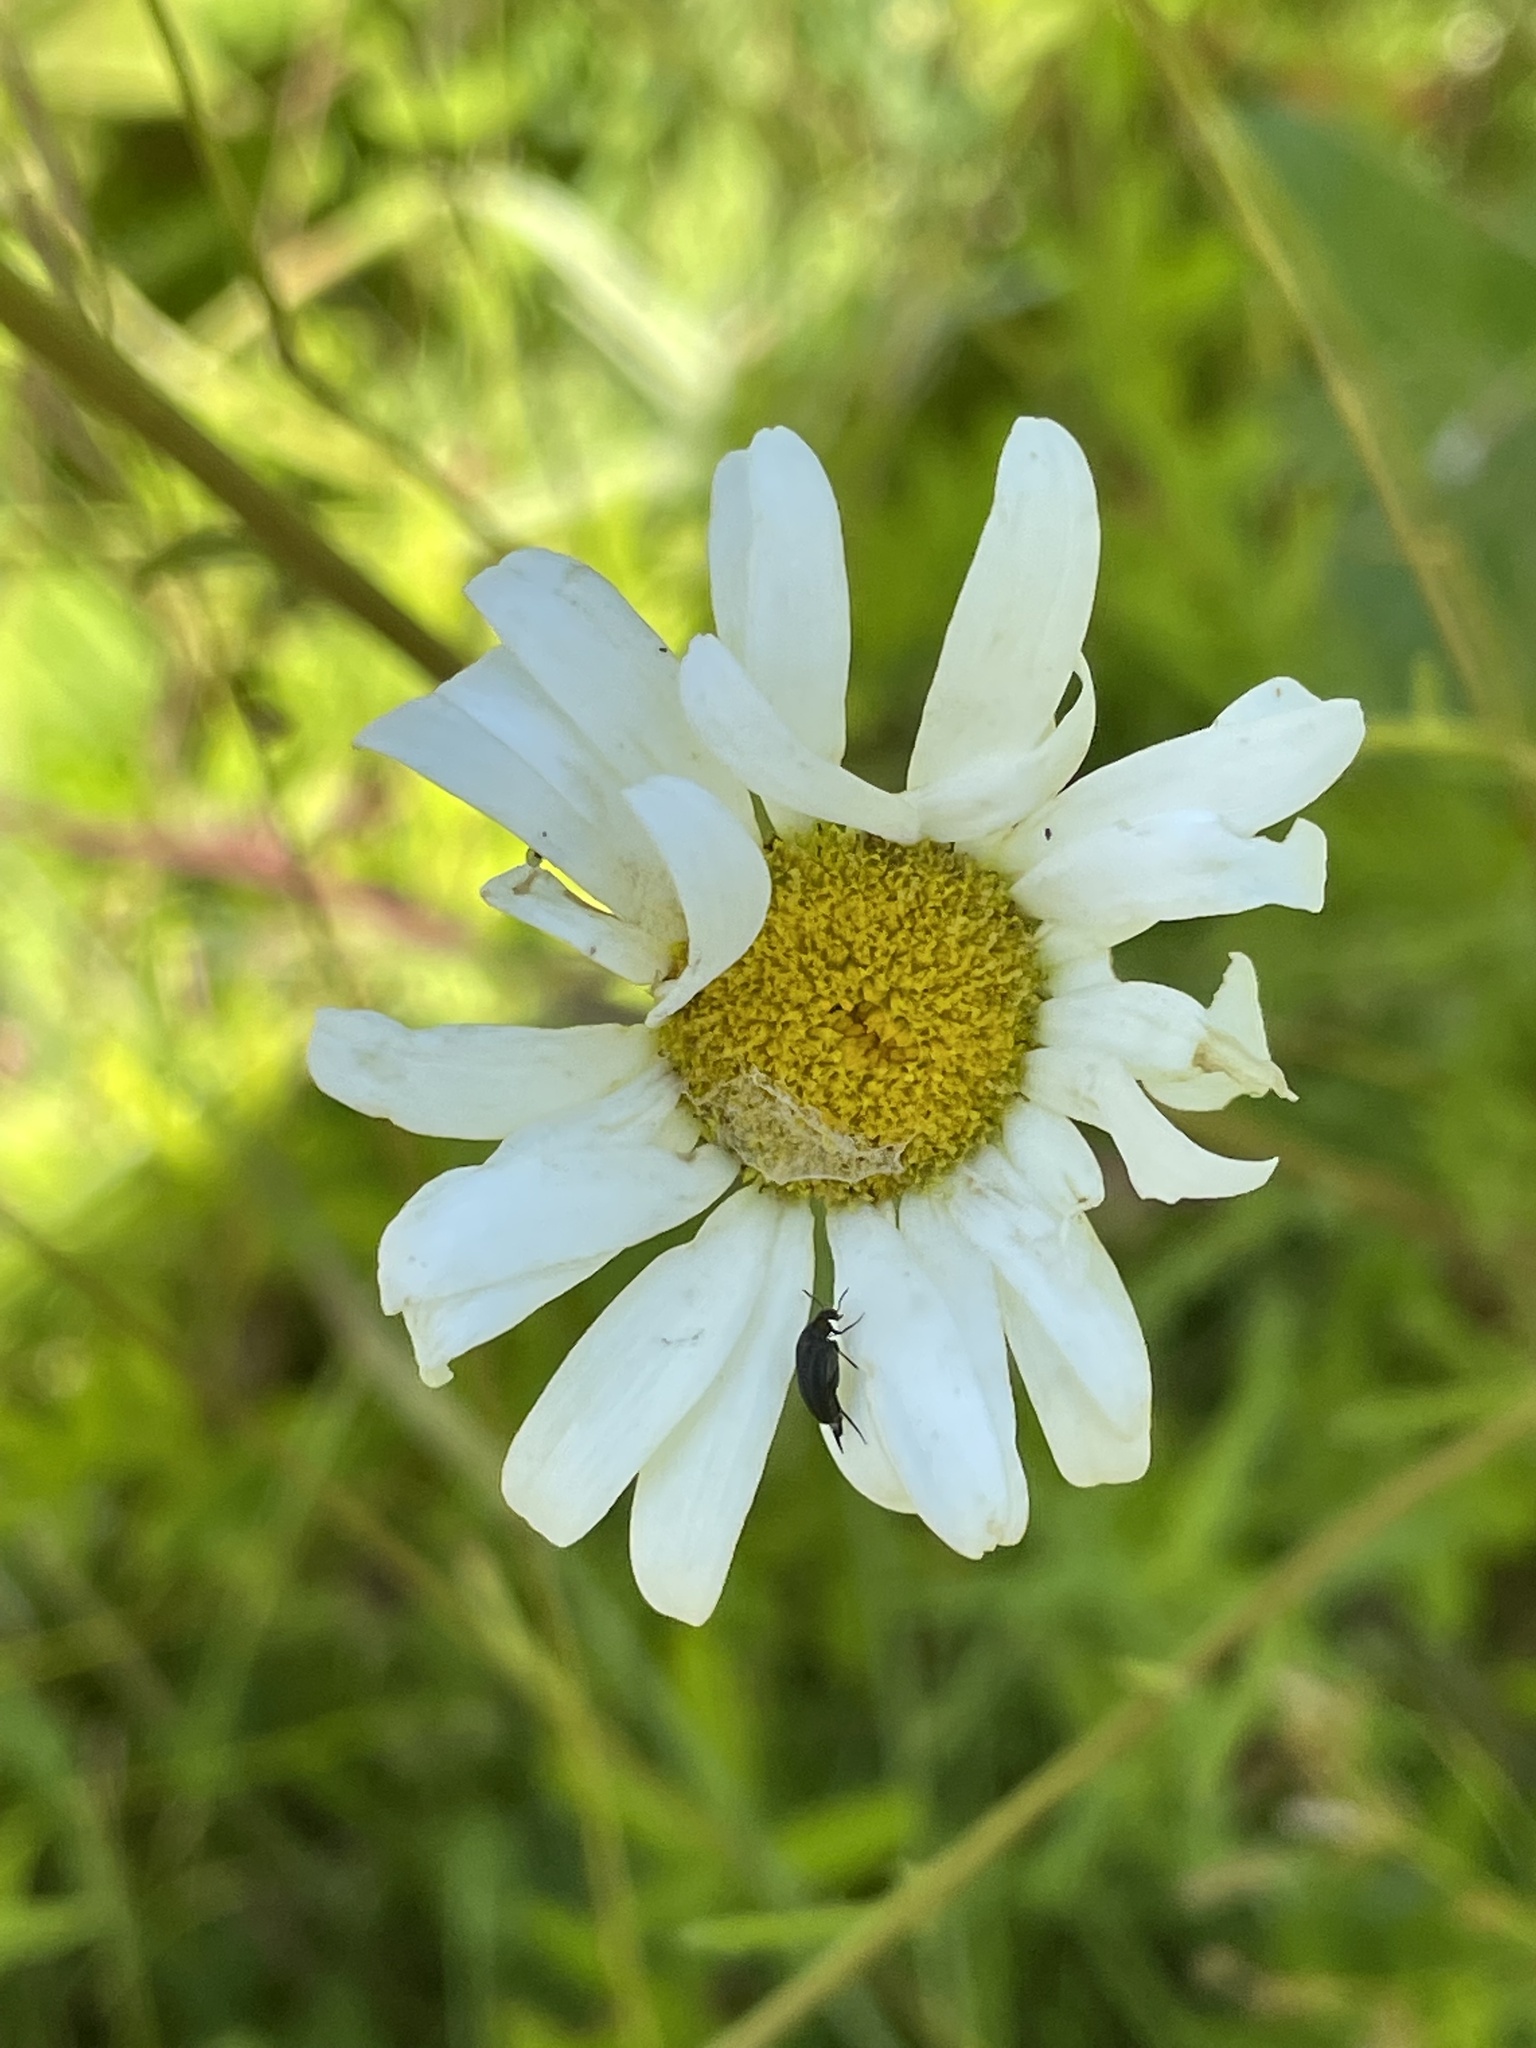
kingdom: Plantae
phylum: Tracheophyta
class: Magnoliopsida
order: Asterales
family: Asteraceae
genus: Leucanthemum
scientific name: Leucanthemum vulgare
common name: Oxeye daisy
